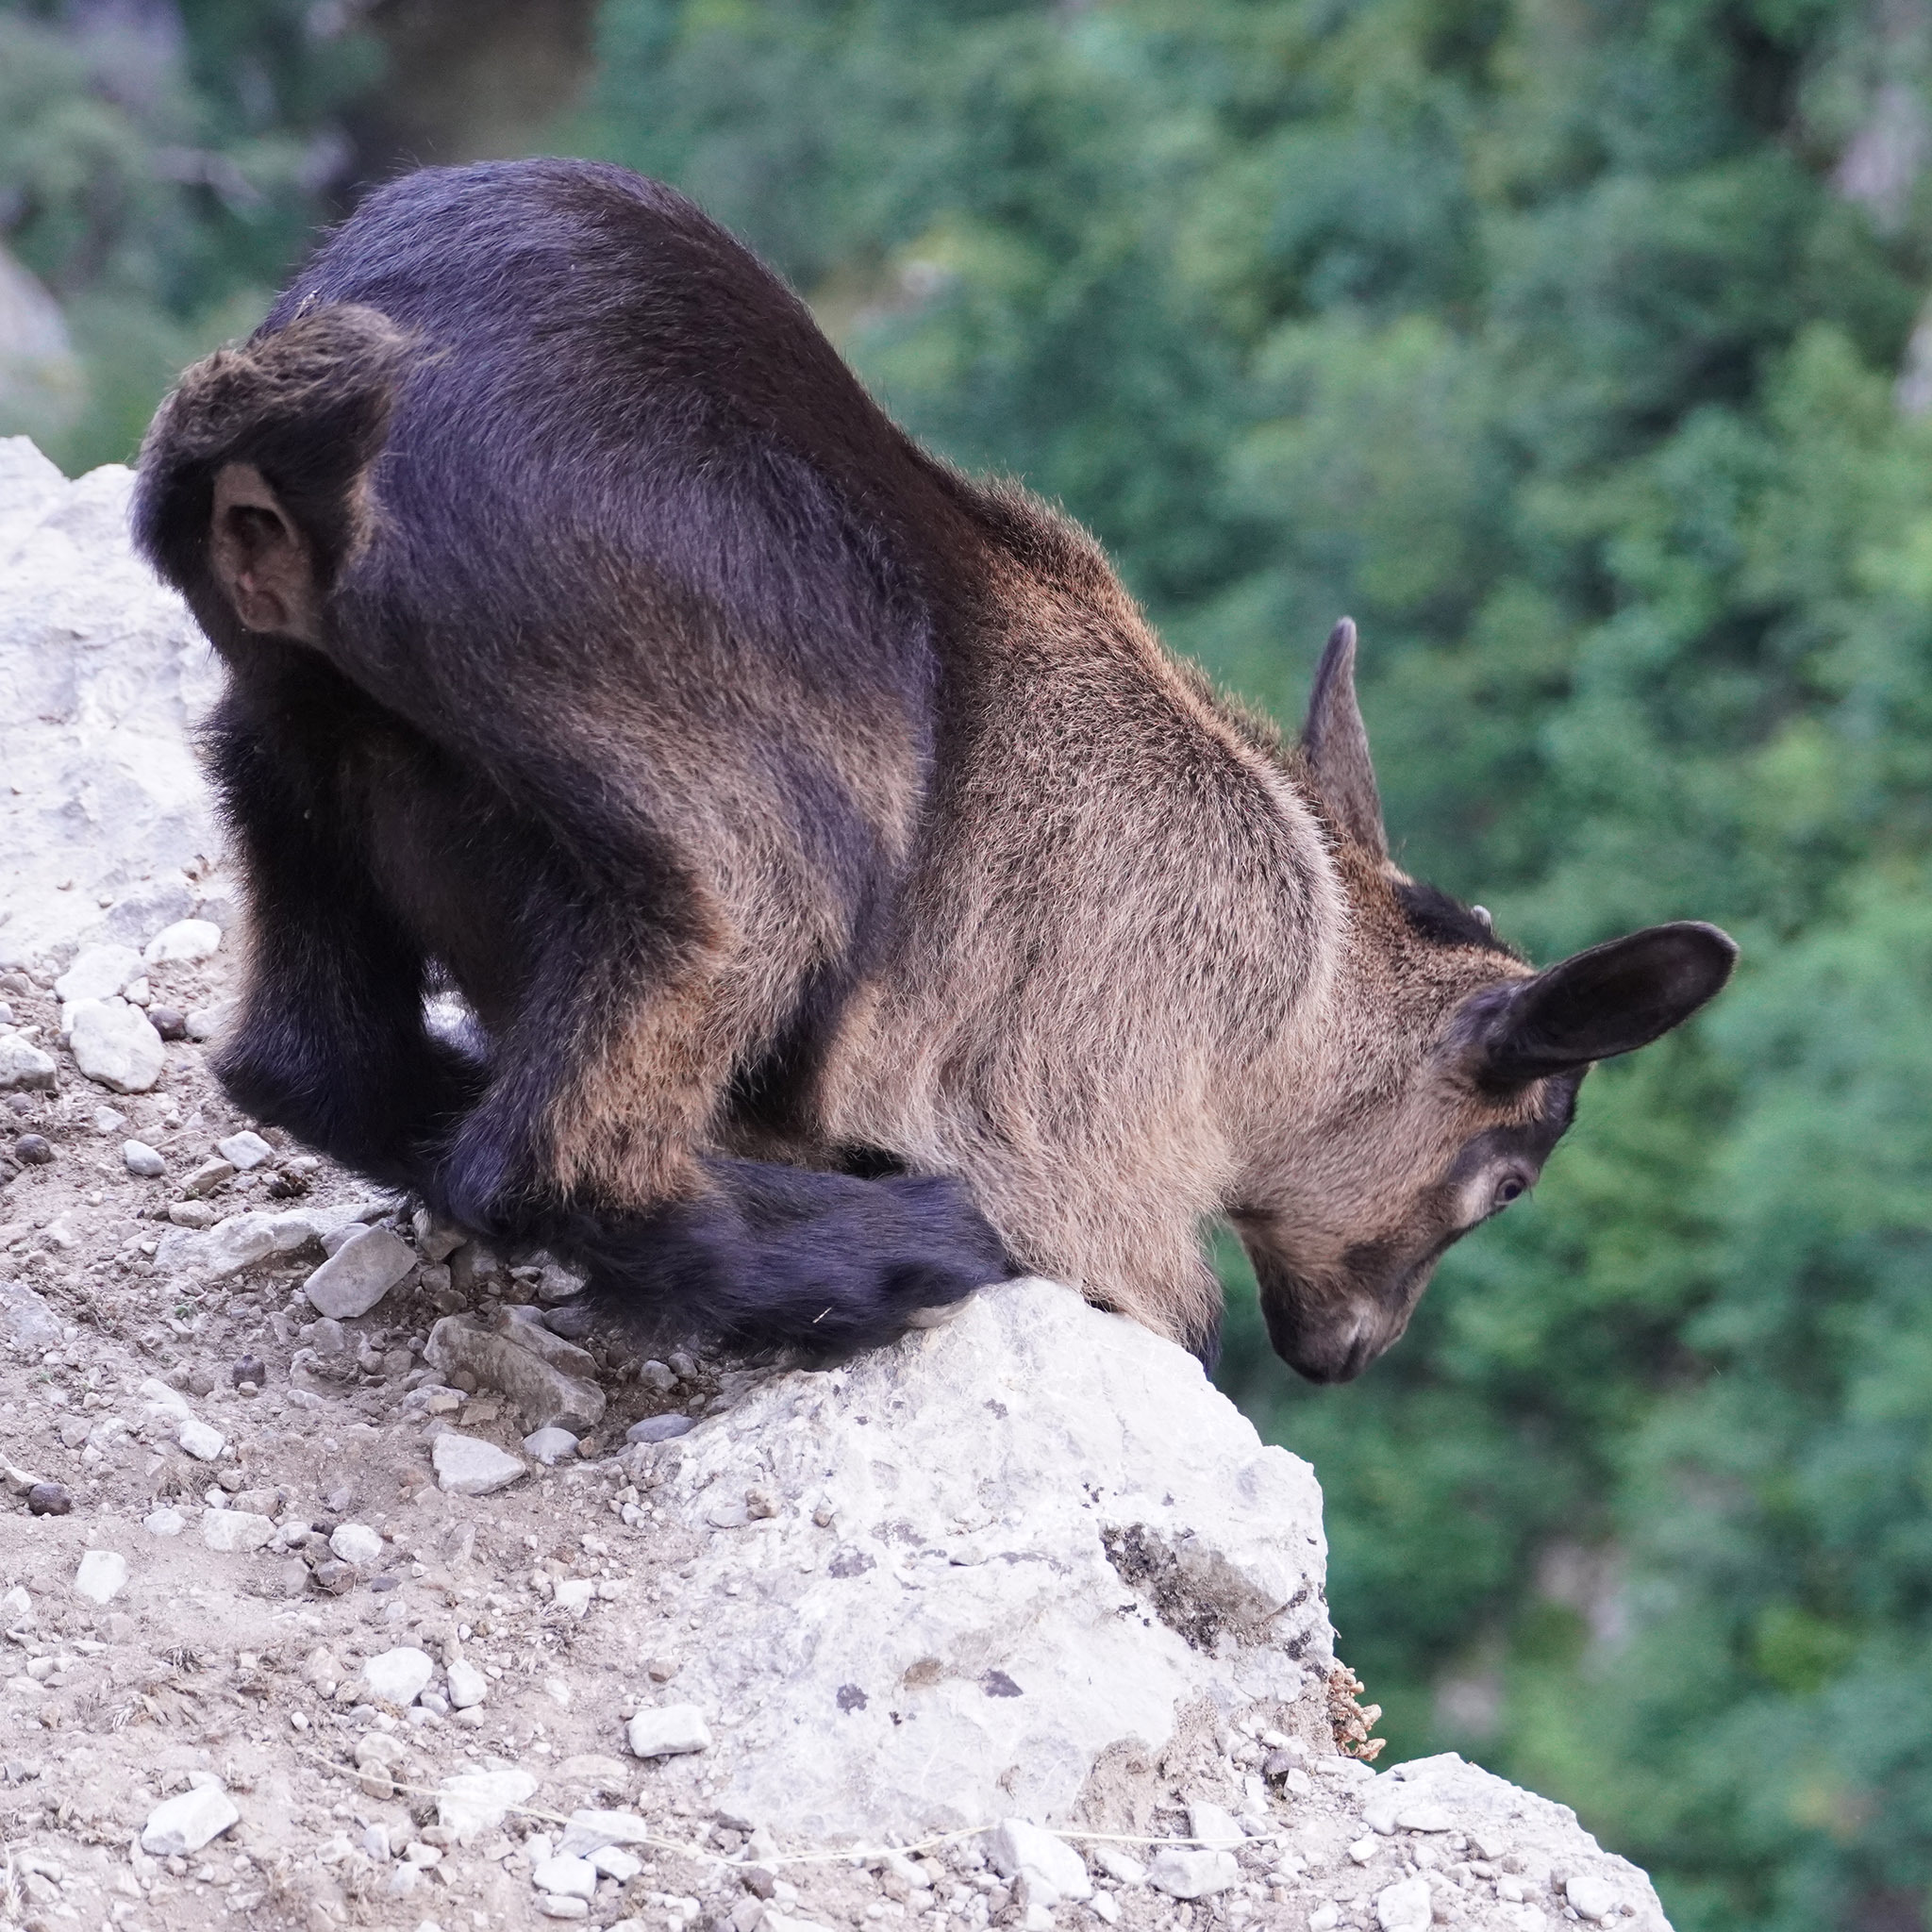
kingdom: Animalia
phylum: Chordata
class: Mammalia
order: Artiodactyla
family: Bovidae
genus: Capra
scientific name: Capra hircus
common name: Domestic goat
